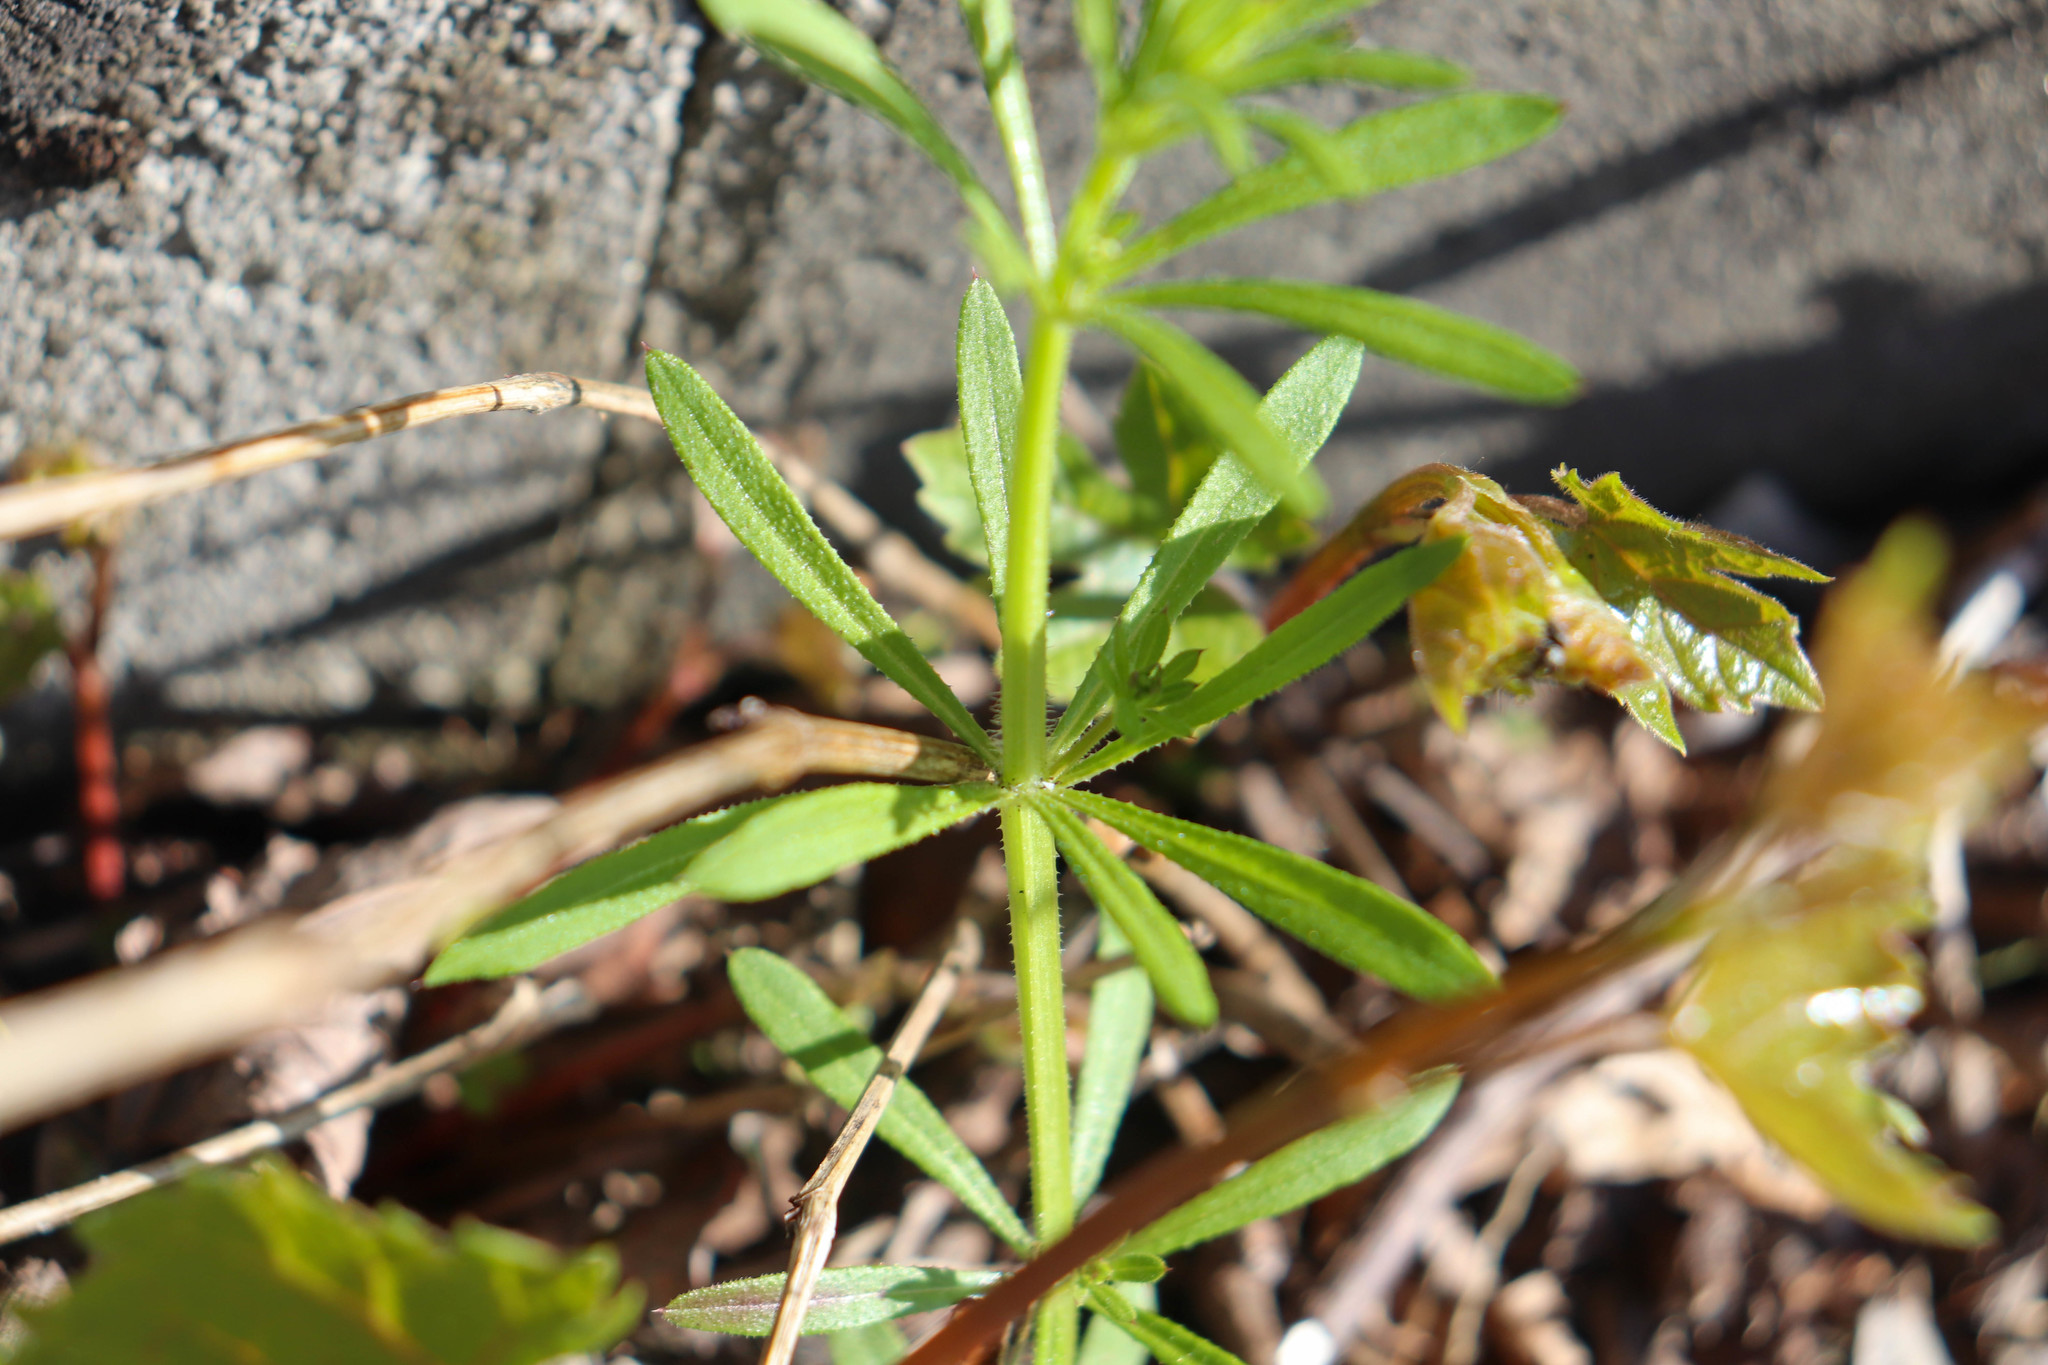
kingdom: Plantae
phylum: Tracheophyta
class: Magnoliopsida
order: Gentianales
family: Rubiaceae
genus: Galium
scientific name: Galium aparine
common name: Cleavers
